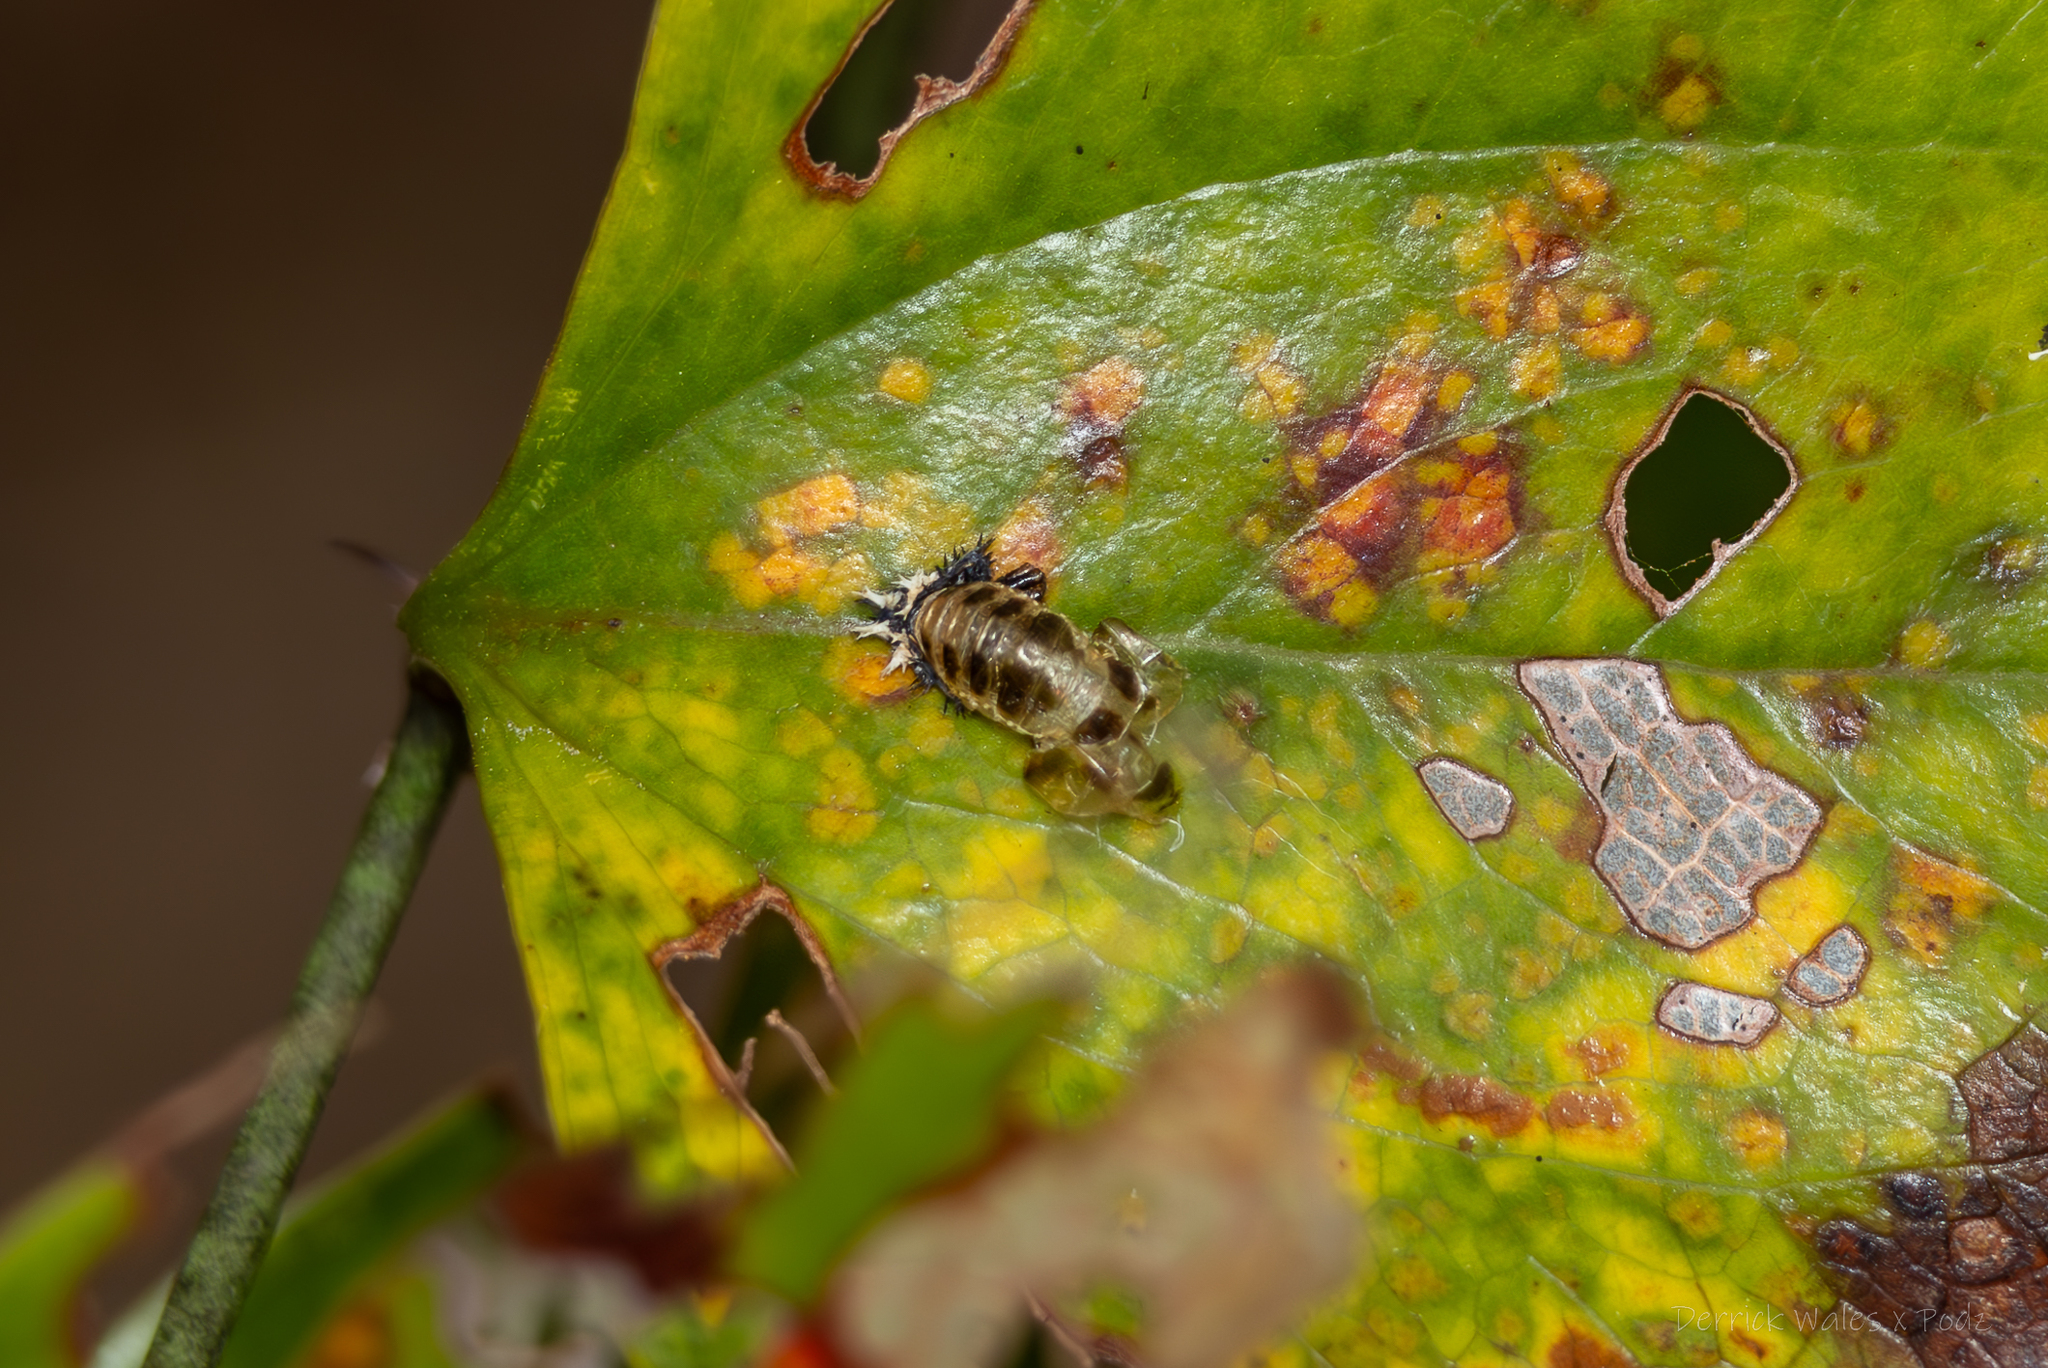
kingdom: Animalia
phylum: Arthropoda
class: Insecta
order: Coleoptera
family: Coccinellidae
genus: Harmonia
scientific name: Harmonia axyridis
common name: Harlequin ladybird
